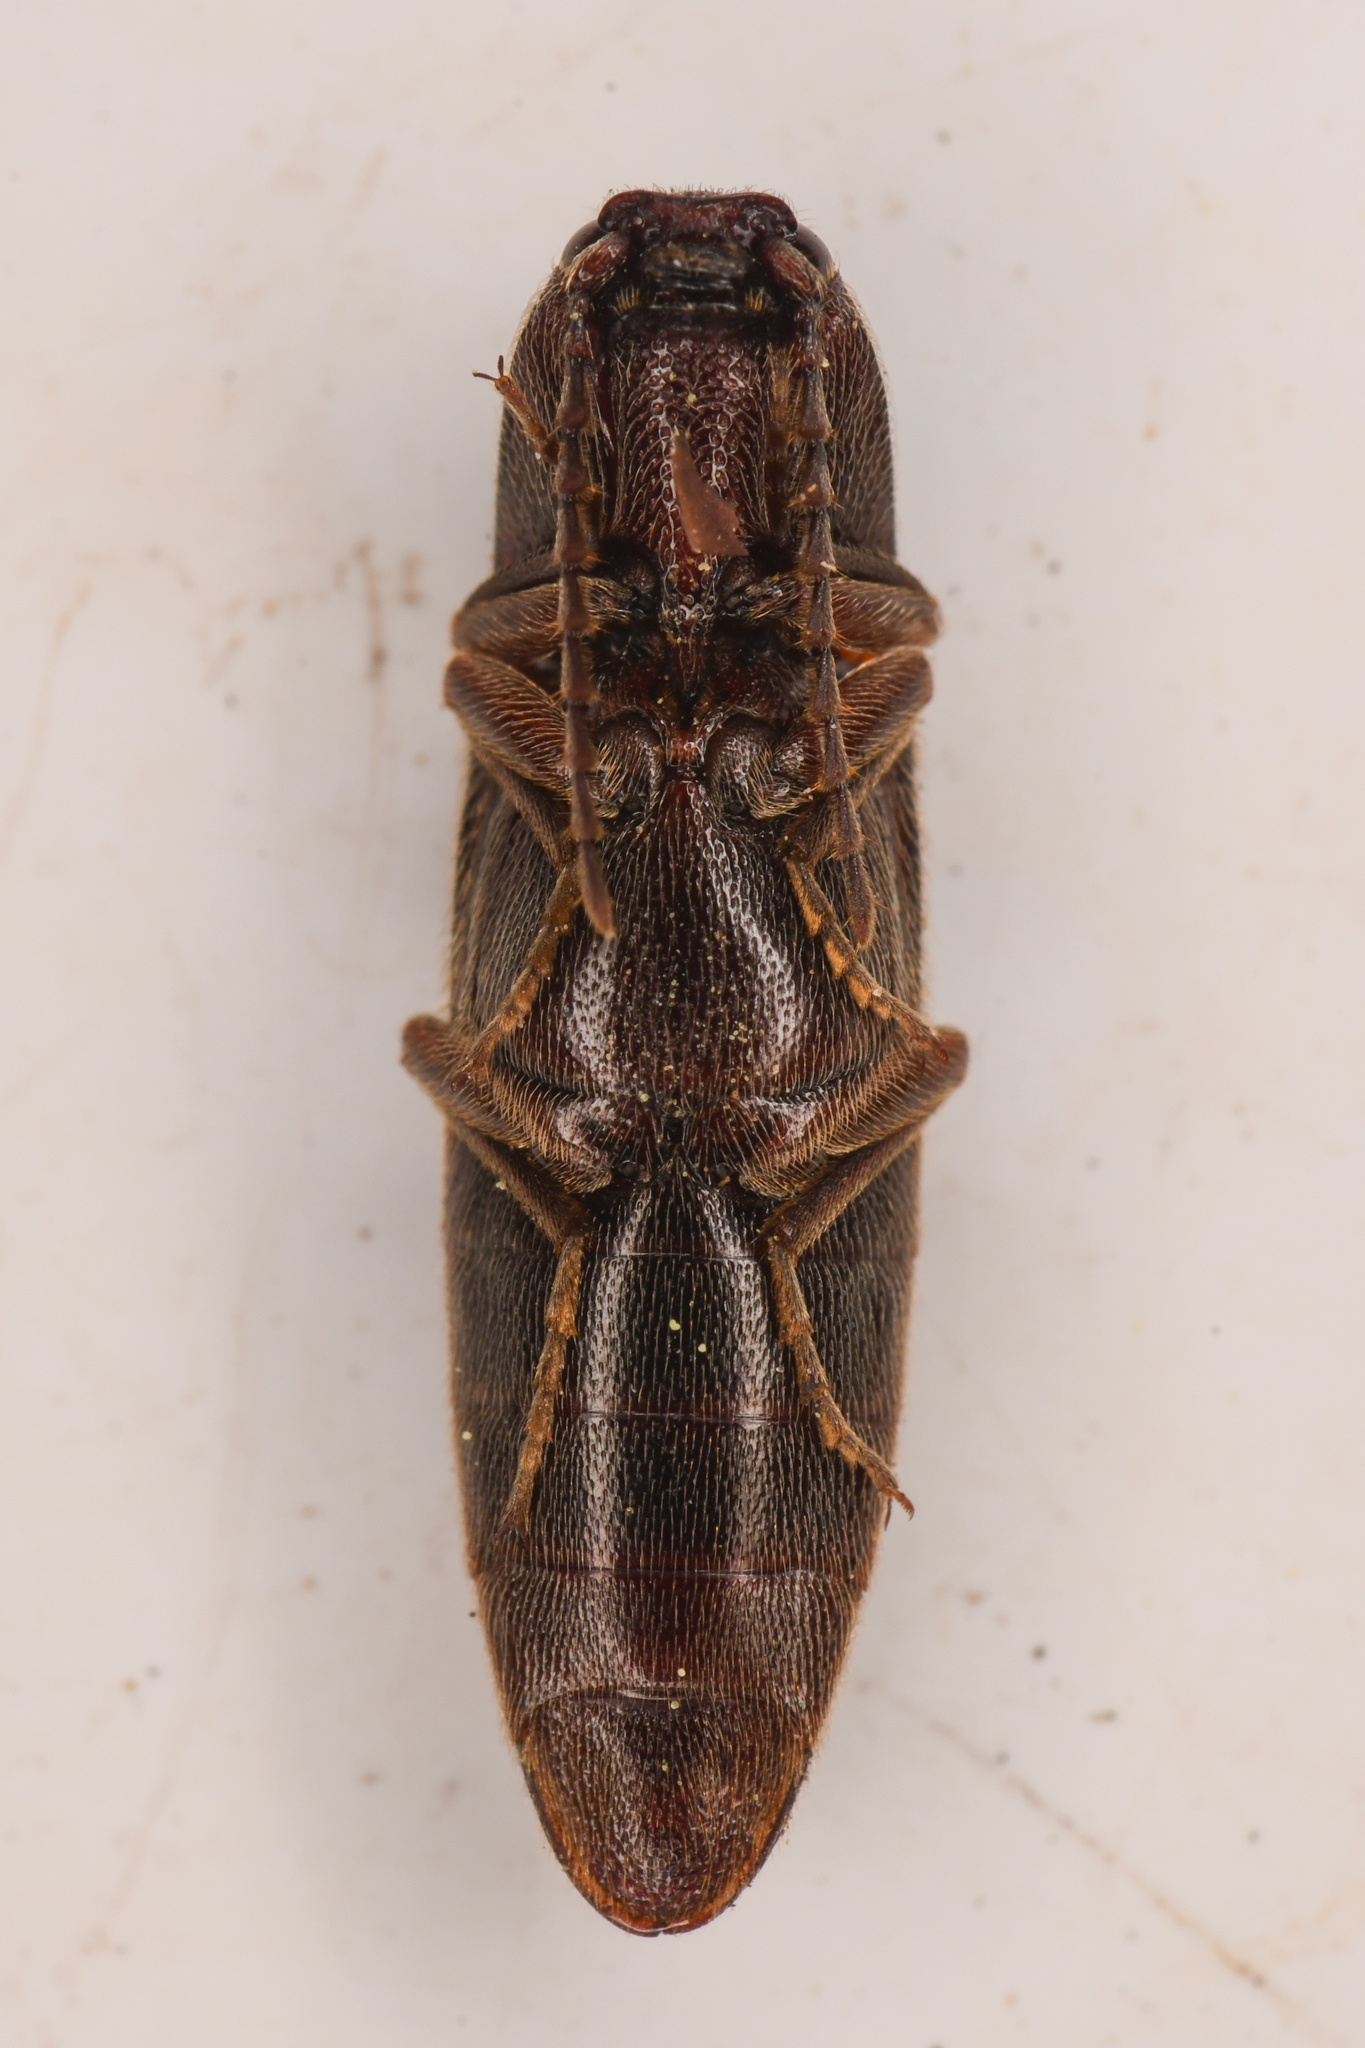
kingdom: Animalia
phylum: Arthropoda
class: Insecta
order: Coleoptera
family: Elateridae
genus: Melanotus
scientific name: Melanotus longulus
